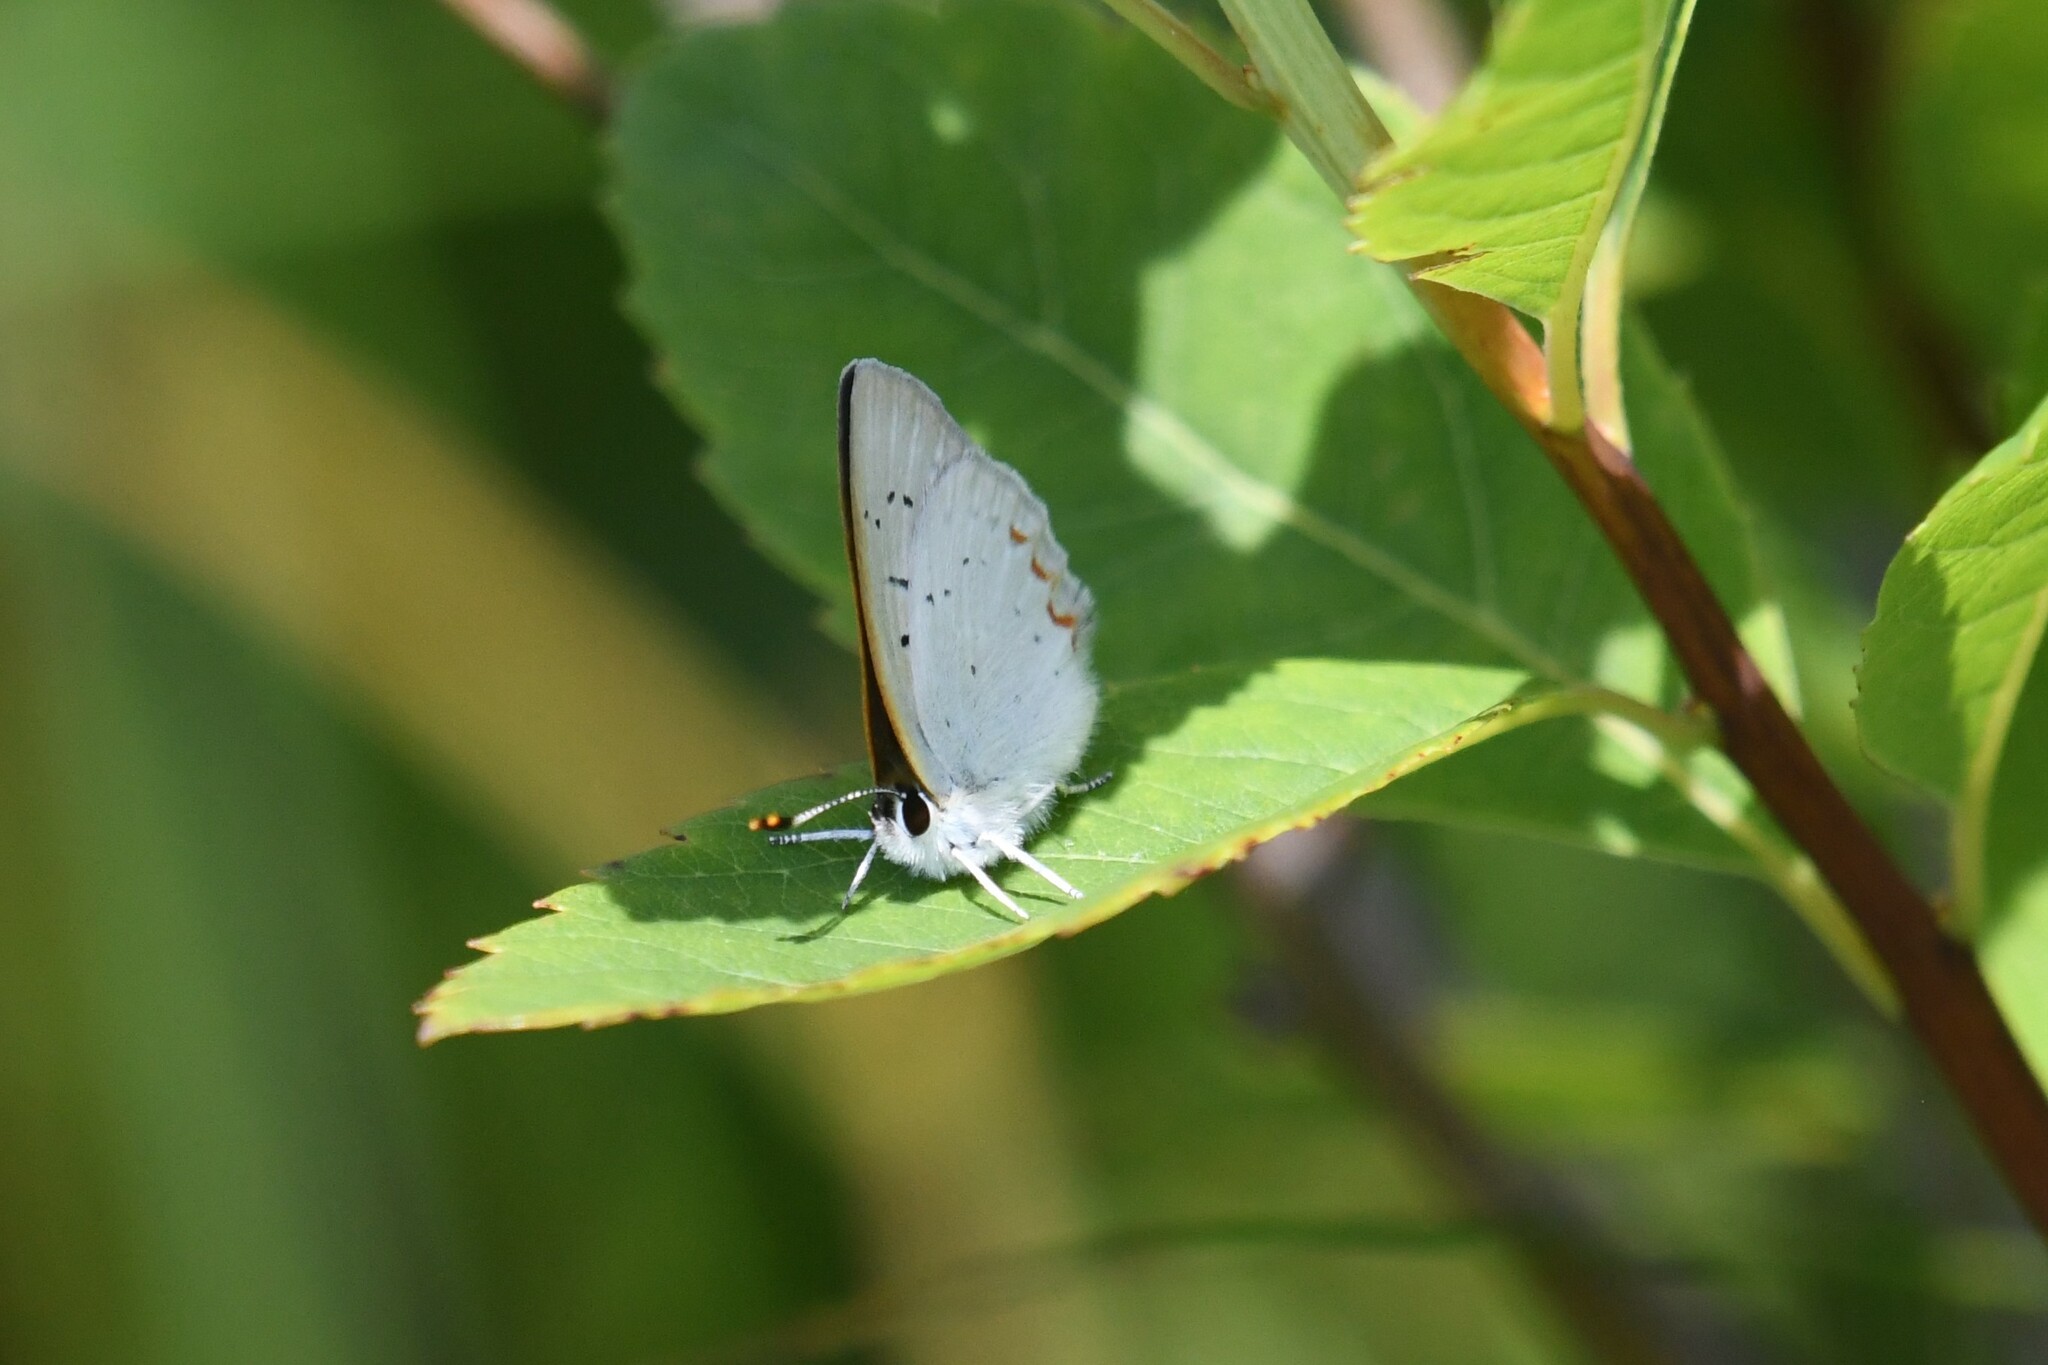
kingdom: Animalia
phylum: Arthropoda
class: Insecta
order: Lepidoptera
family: Lycaenidae
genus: Tharsalea
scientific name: Tharsalea epixanthe
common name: Bog copper
